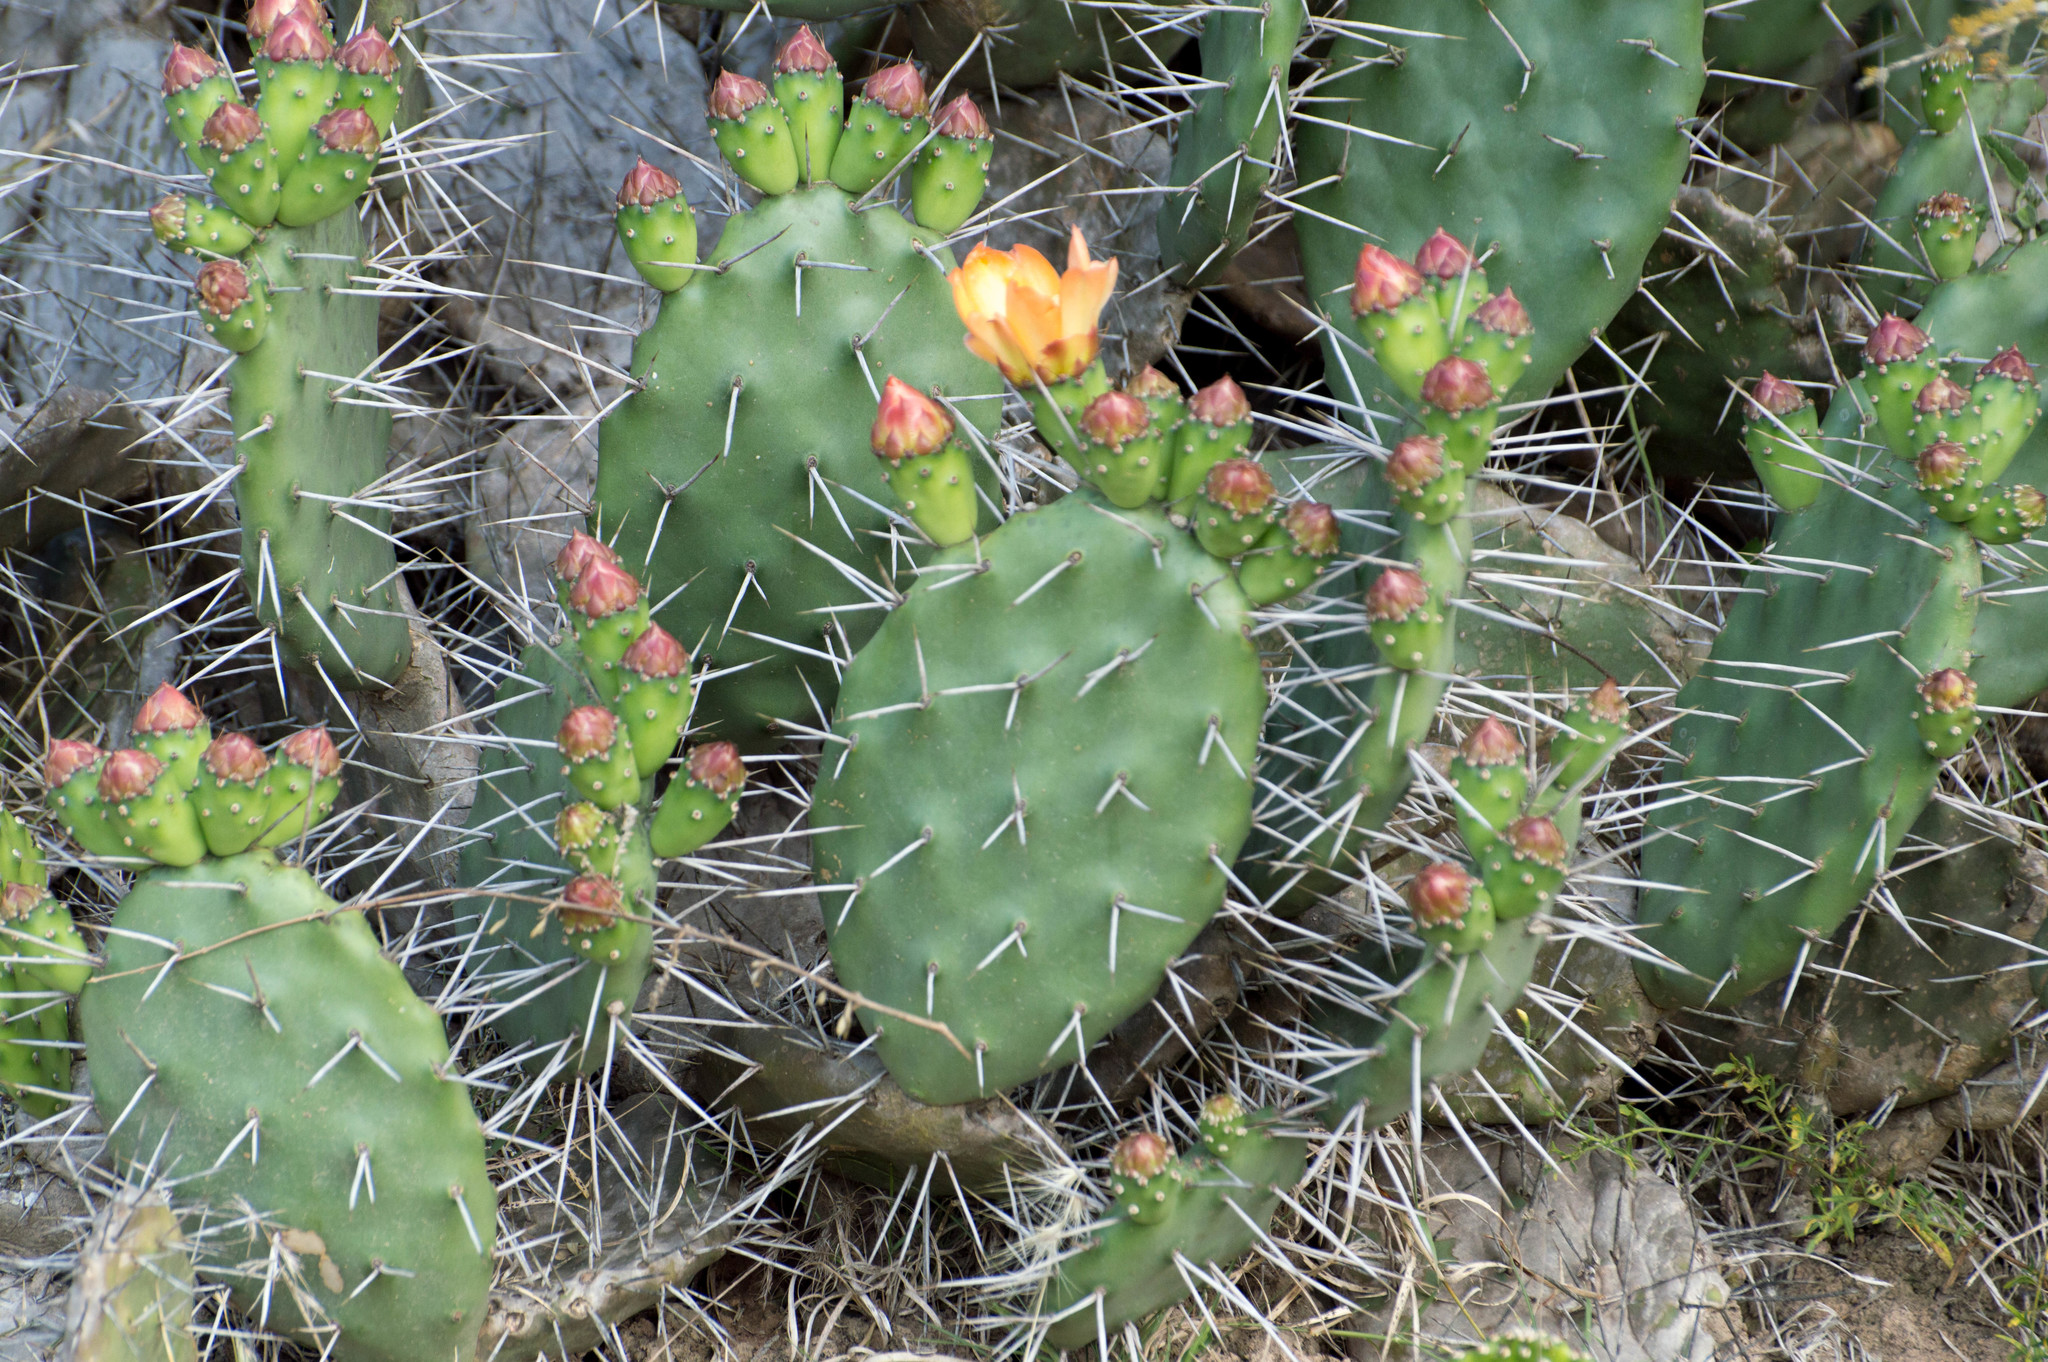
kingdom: Plantae
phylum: Tracheophyta
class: Magnoliopsida
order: Caryophyllales
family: Cactaceae
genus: Opuntia
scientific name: Opuntia sulphurea
